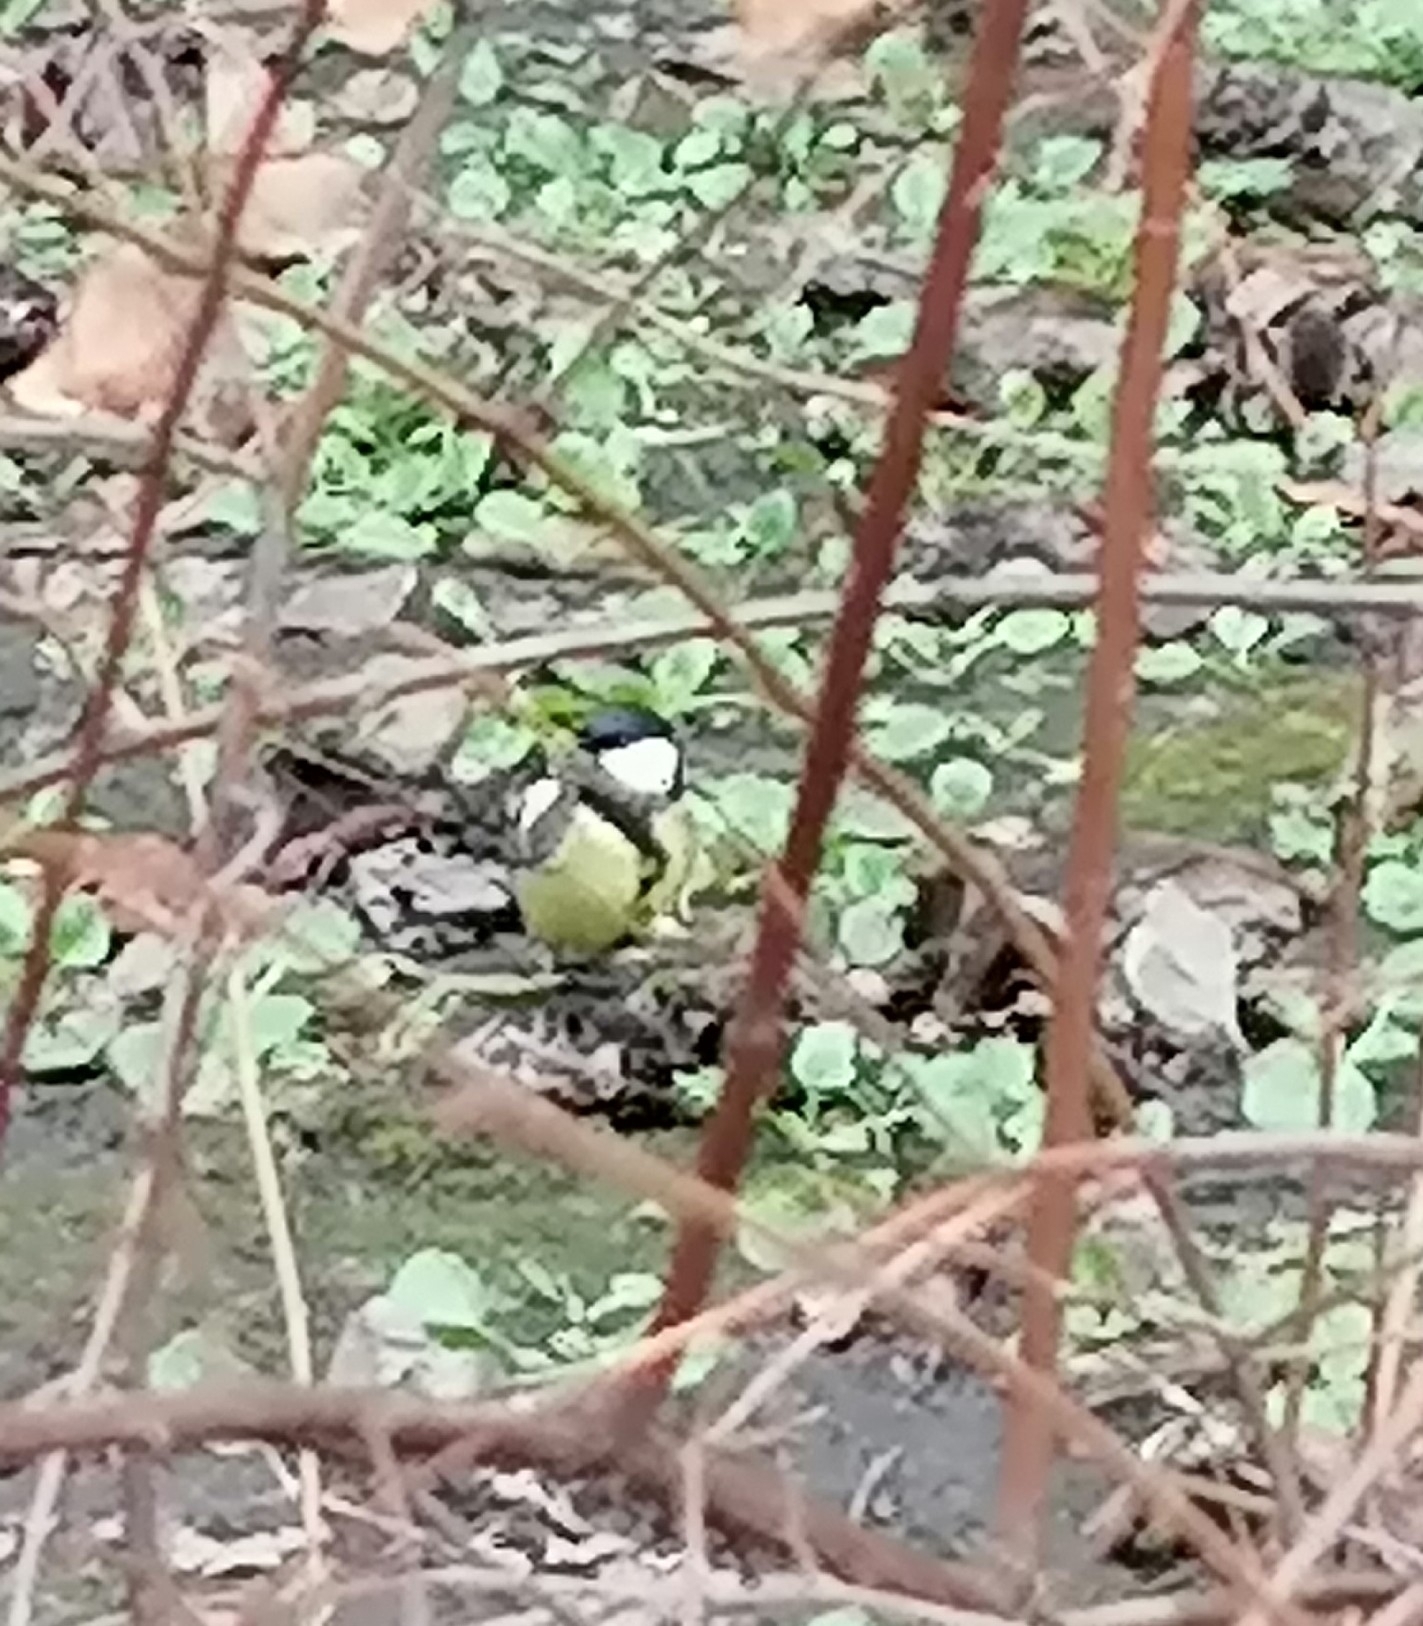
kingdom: Animalia
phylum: Chordata
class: Aves
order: Passeriformes
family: Paridae
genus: Parus
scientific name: Parus major
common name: Great tit
